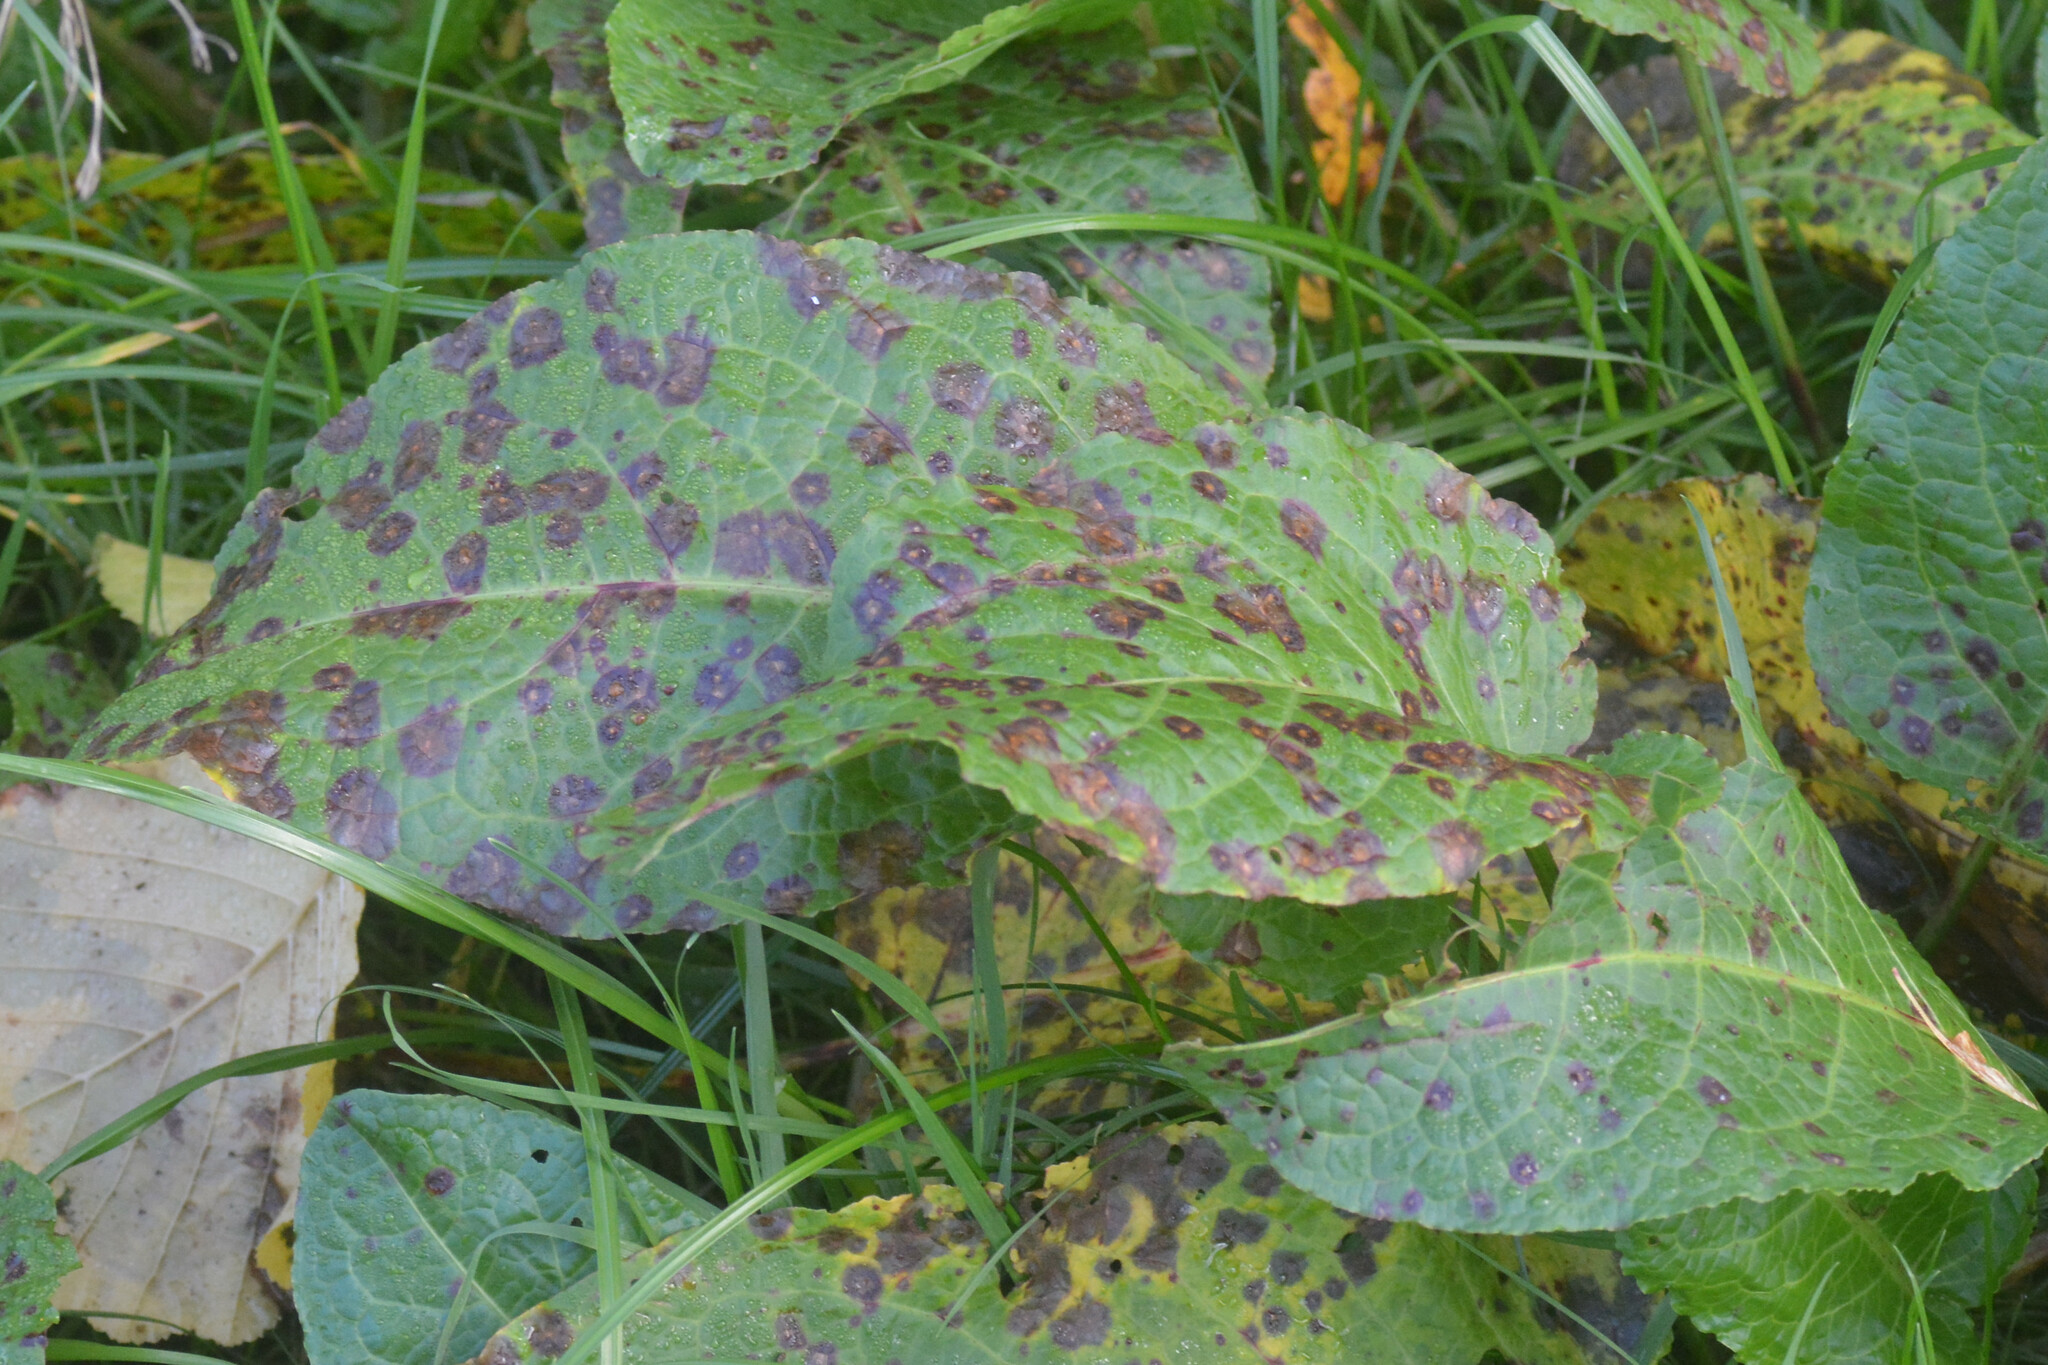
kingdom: Fungi
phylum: Ascomycota
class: Dothideomycetes
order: Mycosphaerellales
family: Mycosphaerellaceae
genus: Ramularia
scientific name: Ramularia rubella
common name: Red dock spot
